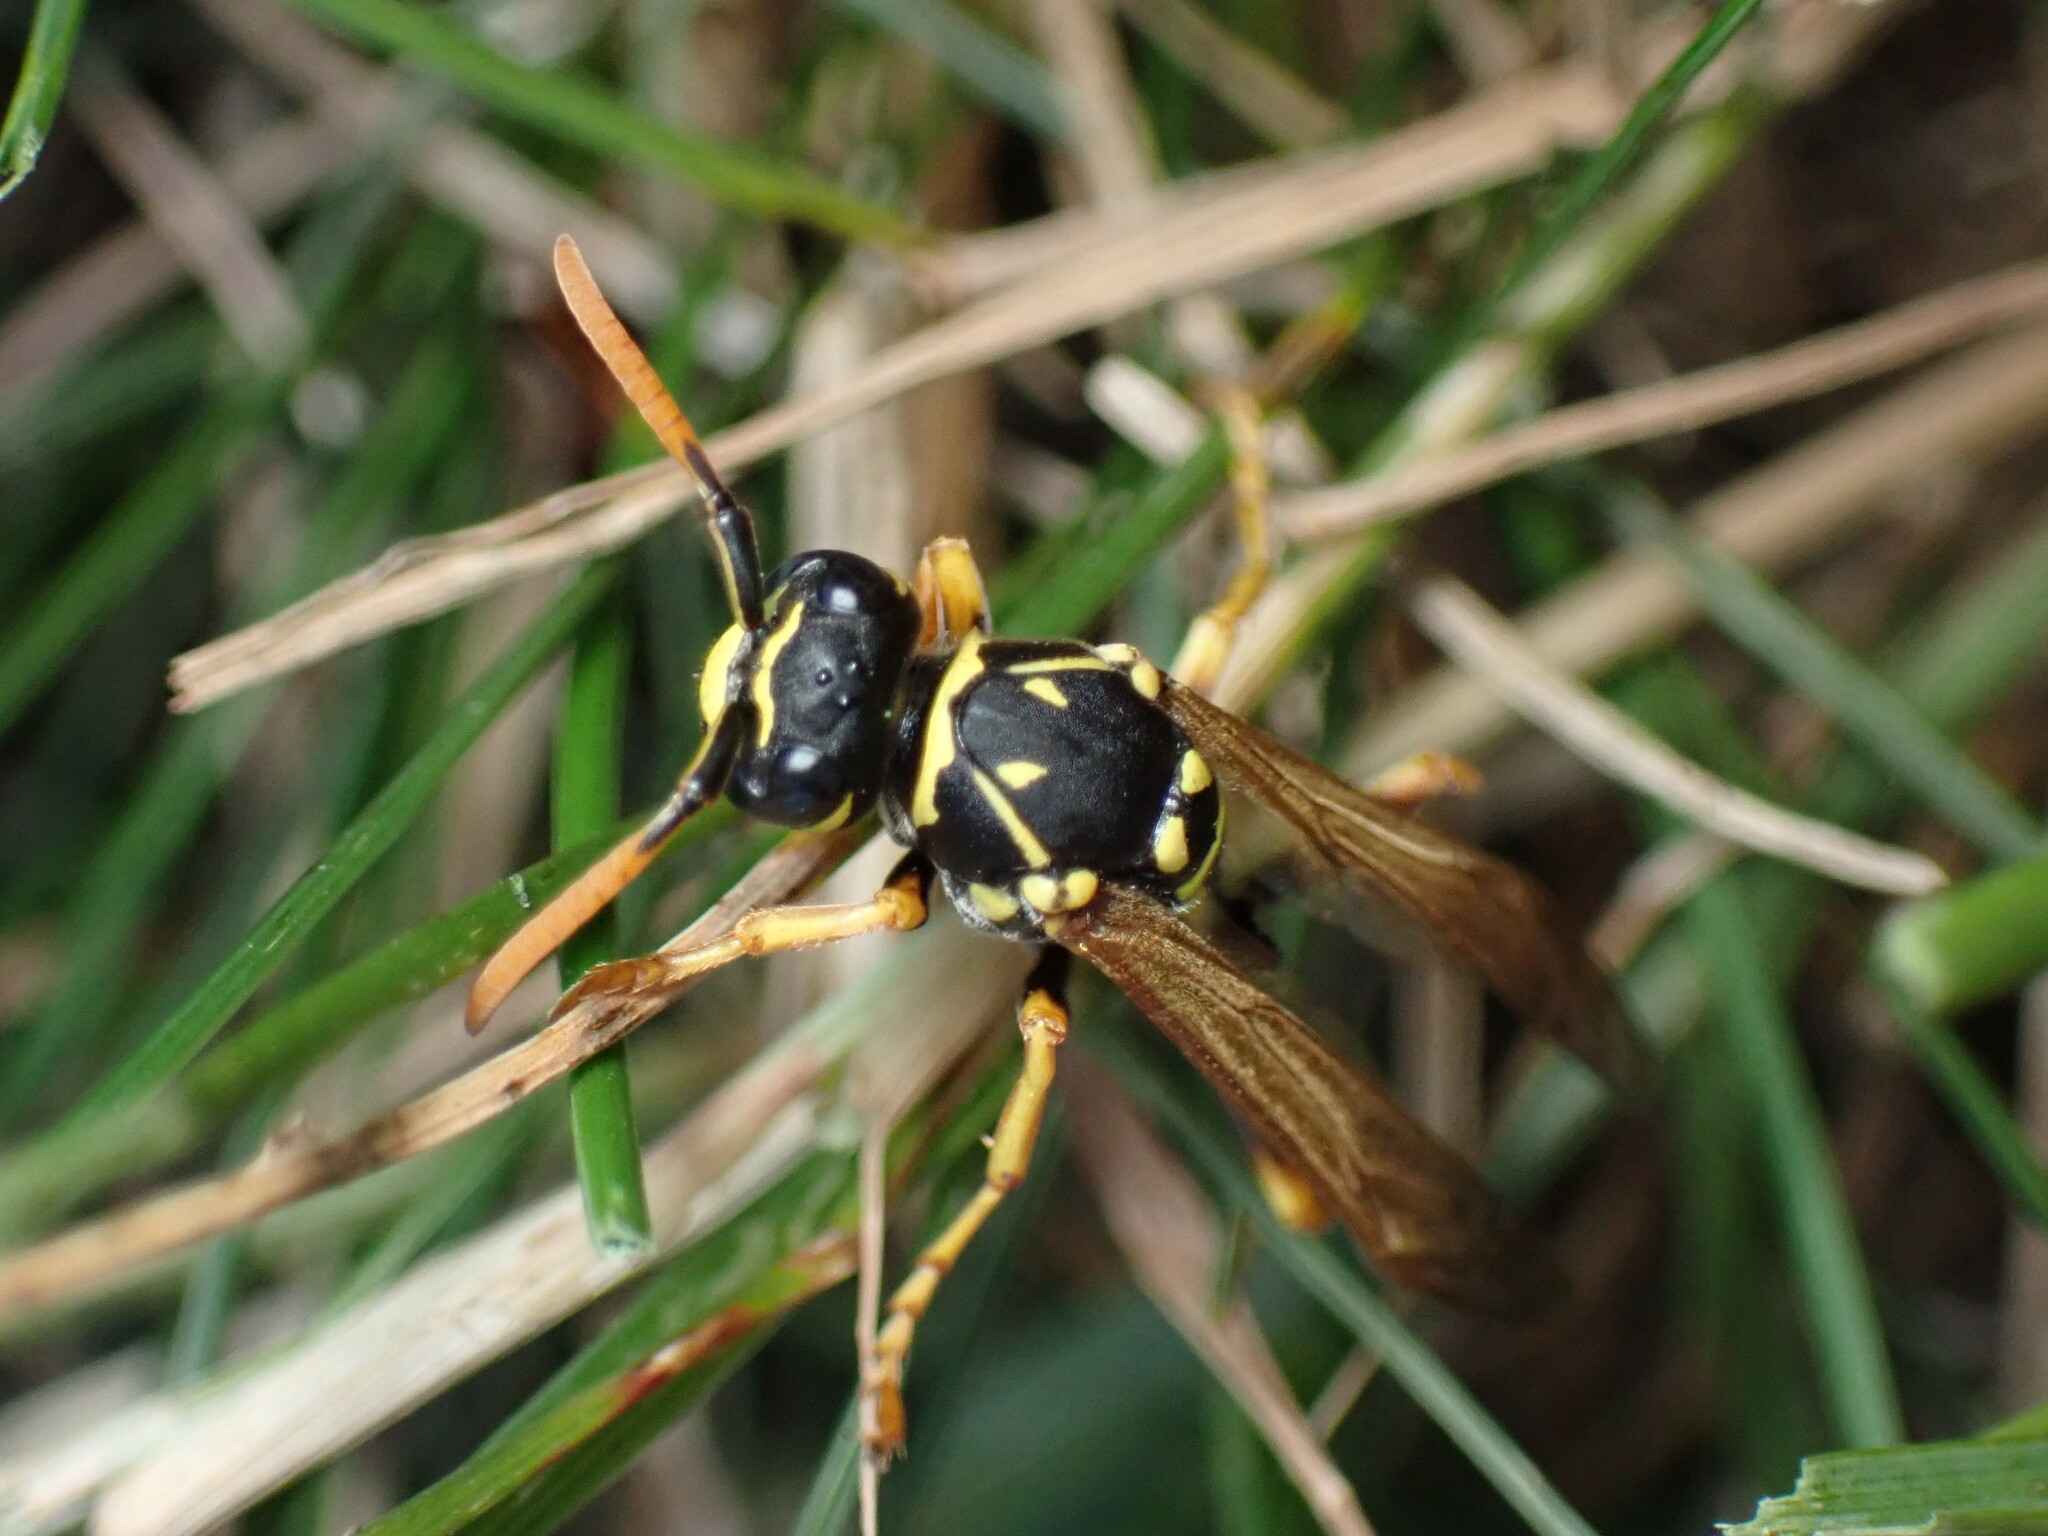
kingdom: Animalia
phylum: Arthropoda
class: Insecta
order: Hymenoptera
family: Eumenidae
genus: Polistes
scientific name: Polistes dominula
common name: Paper wasp
